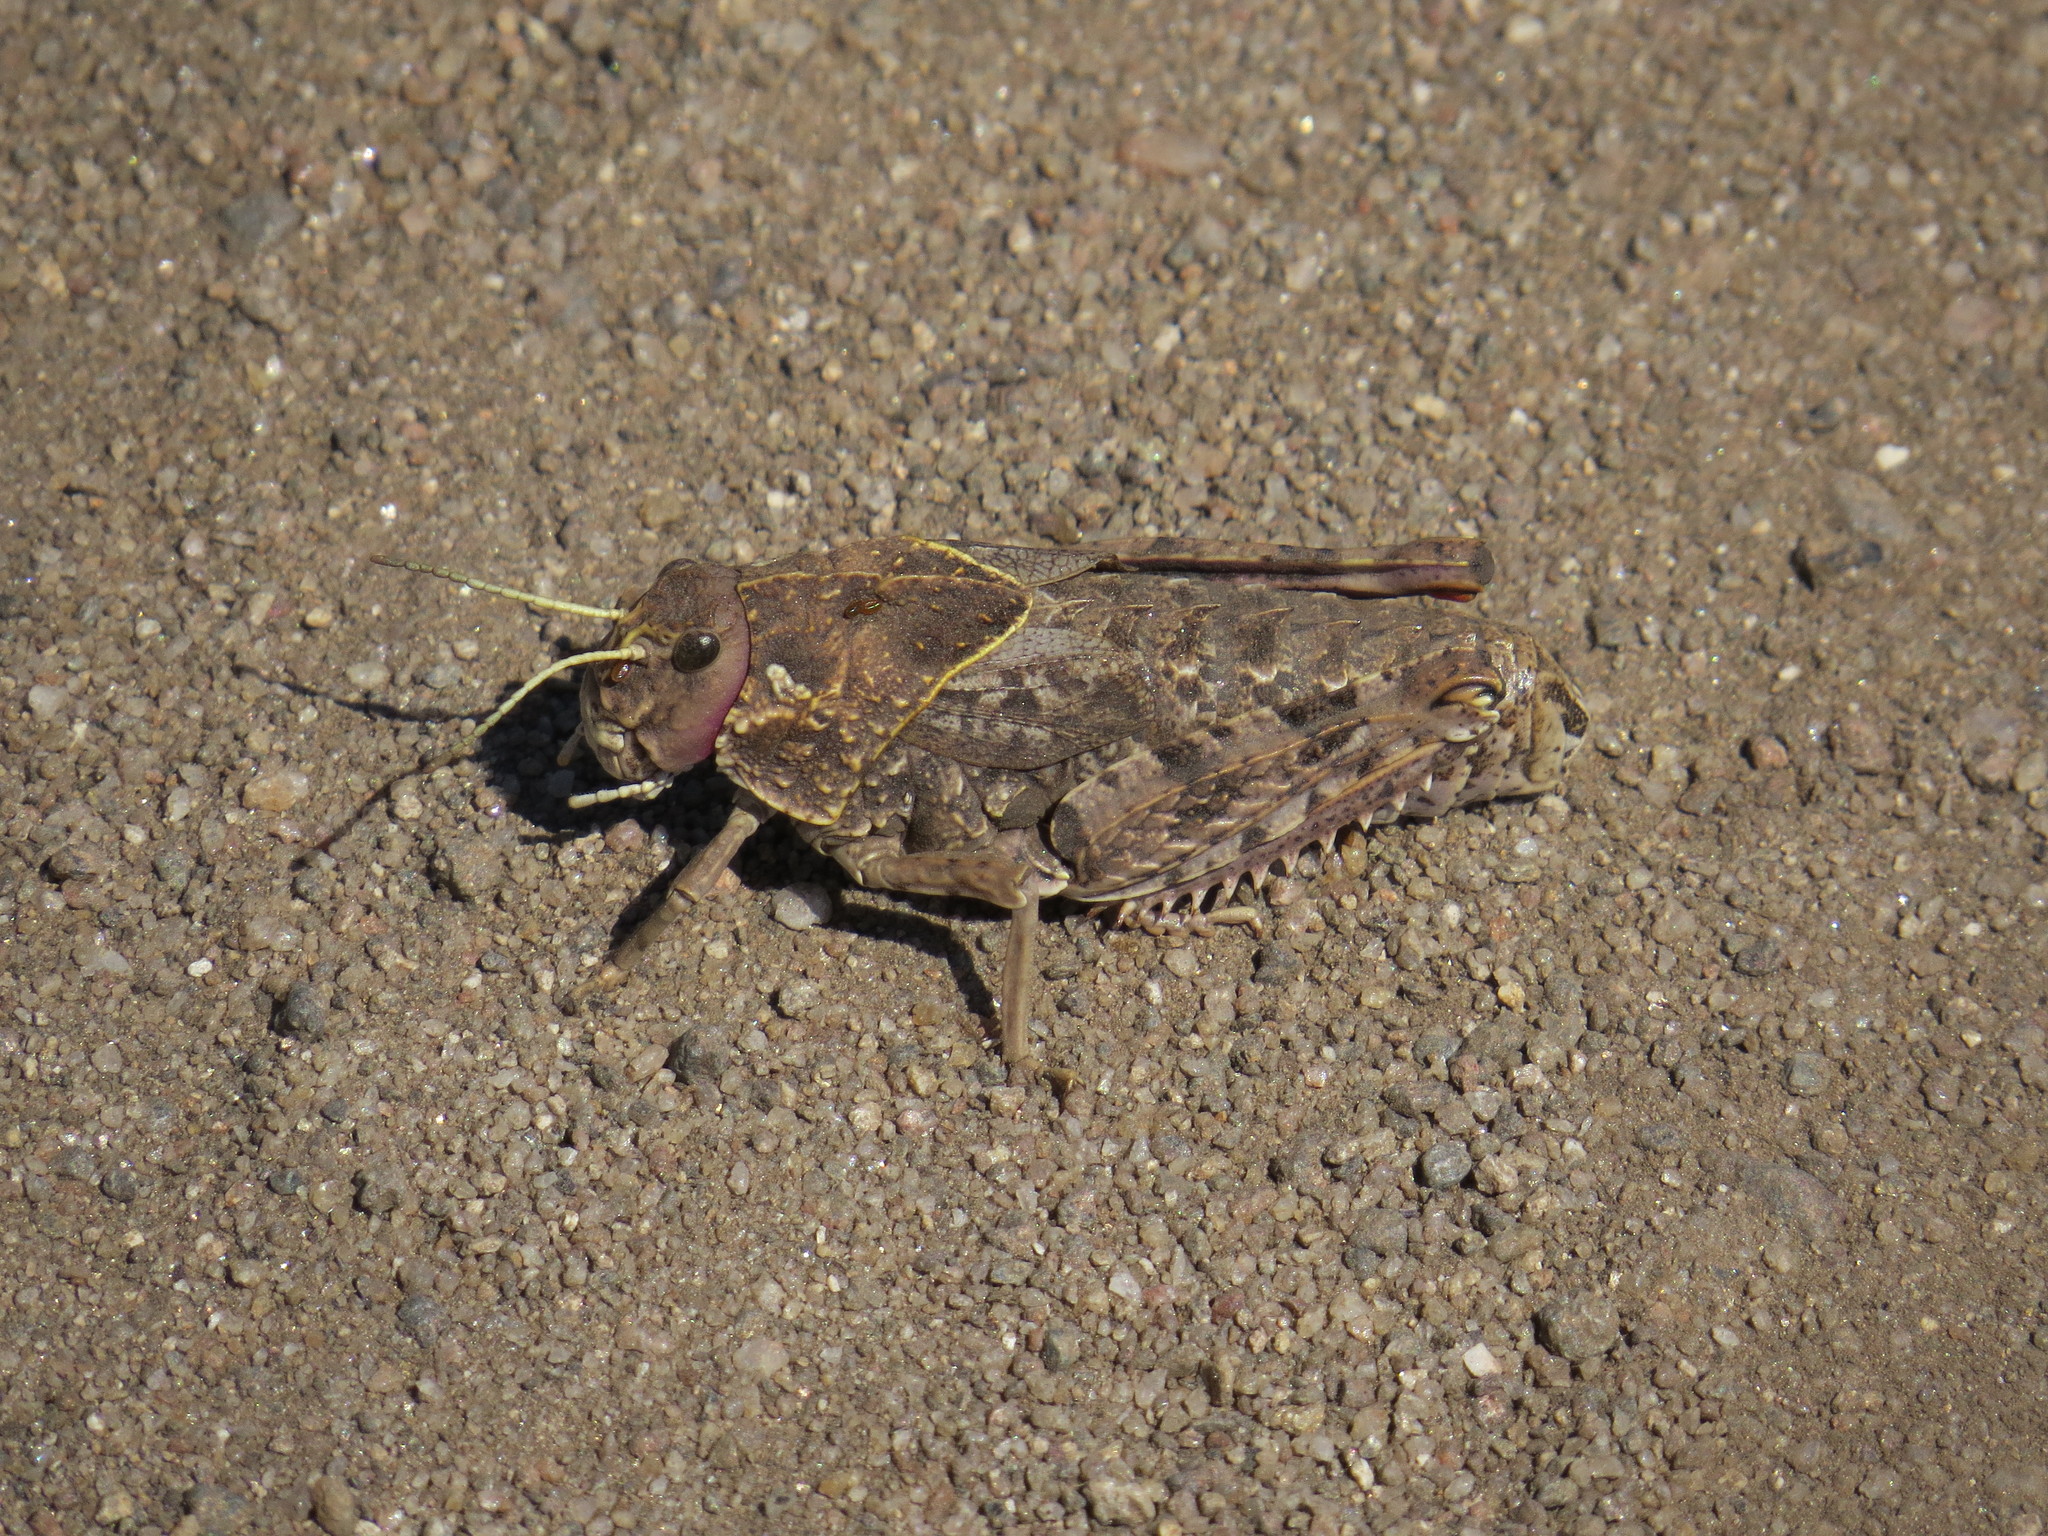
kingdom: Animalia
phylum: Arthropoda
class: Insecta
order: Orthoptera
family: Pamphagidae
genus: Prionotropis
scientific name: Prionotropis flexuosa
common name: Tortuous stone grasshopper
